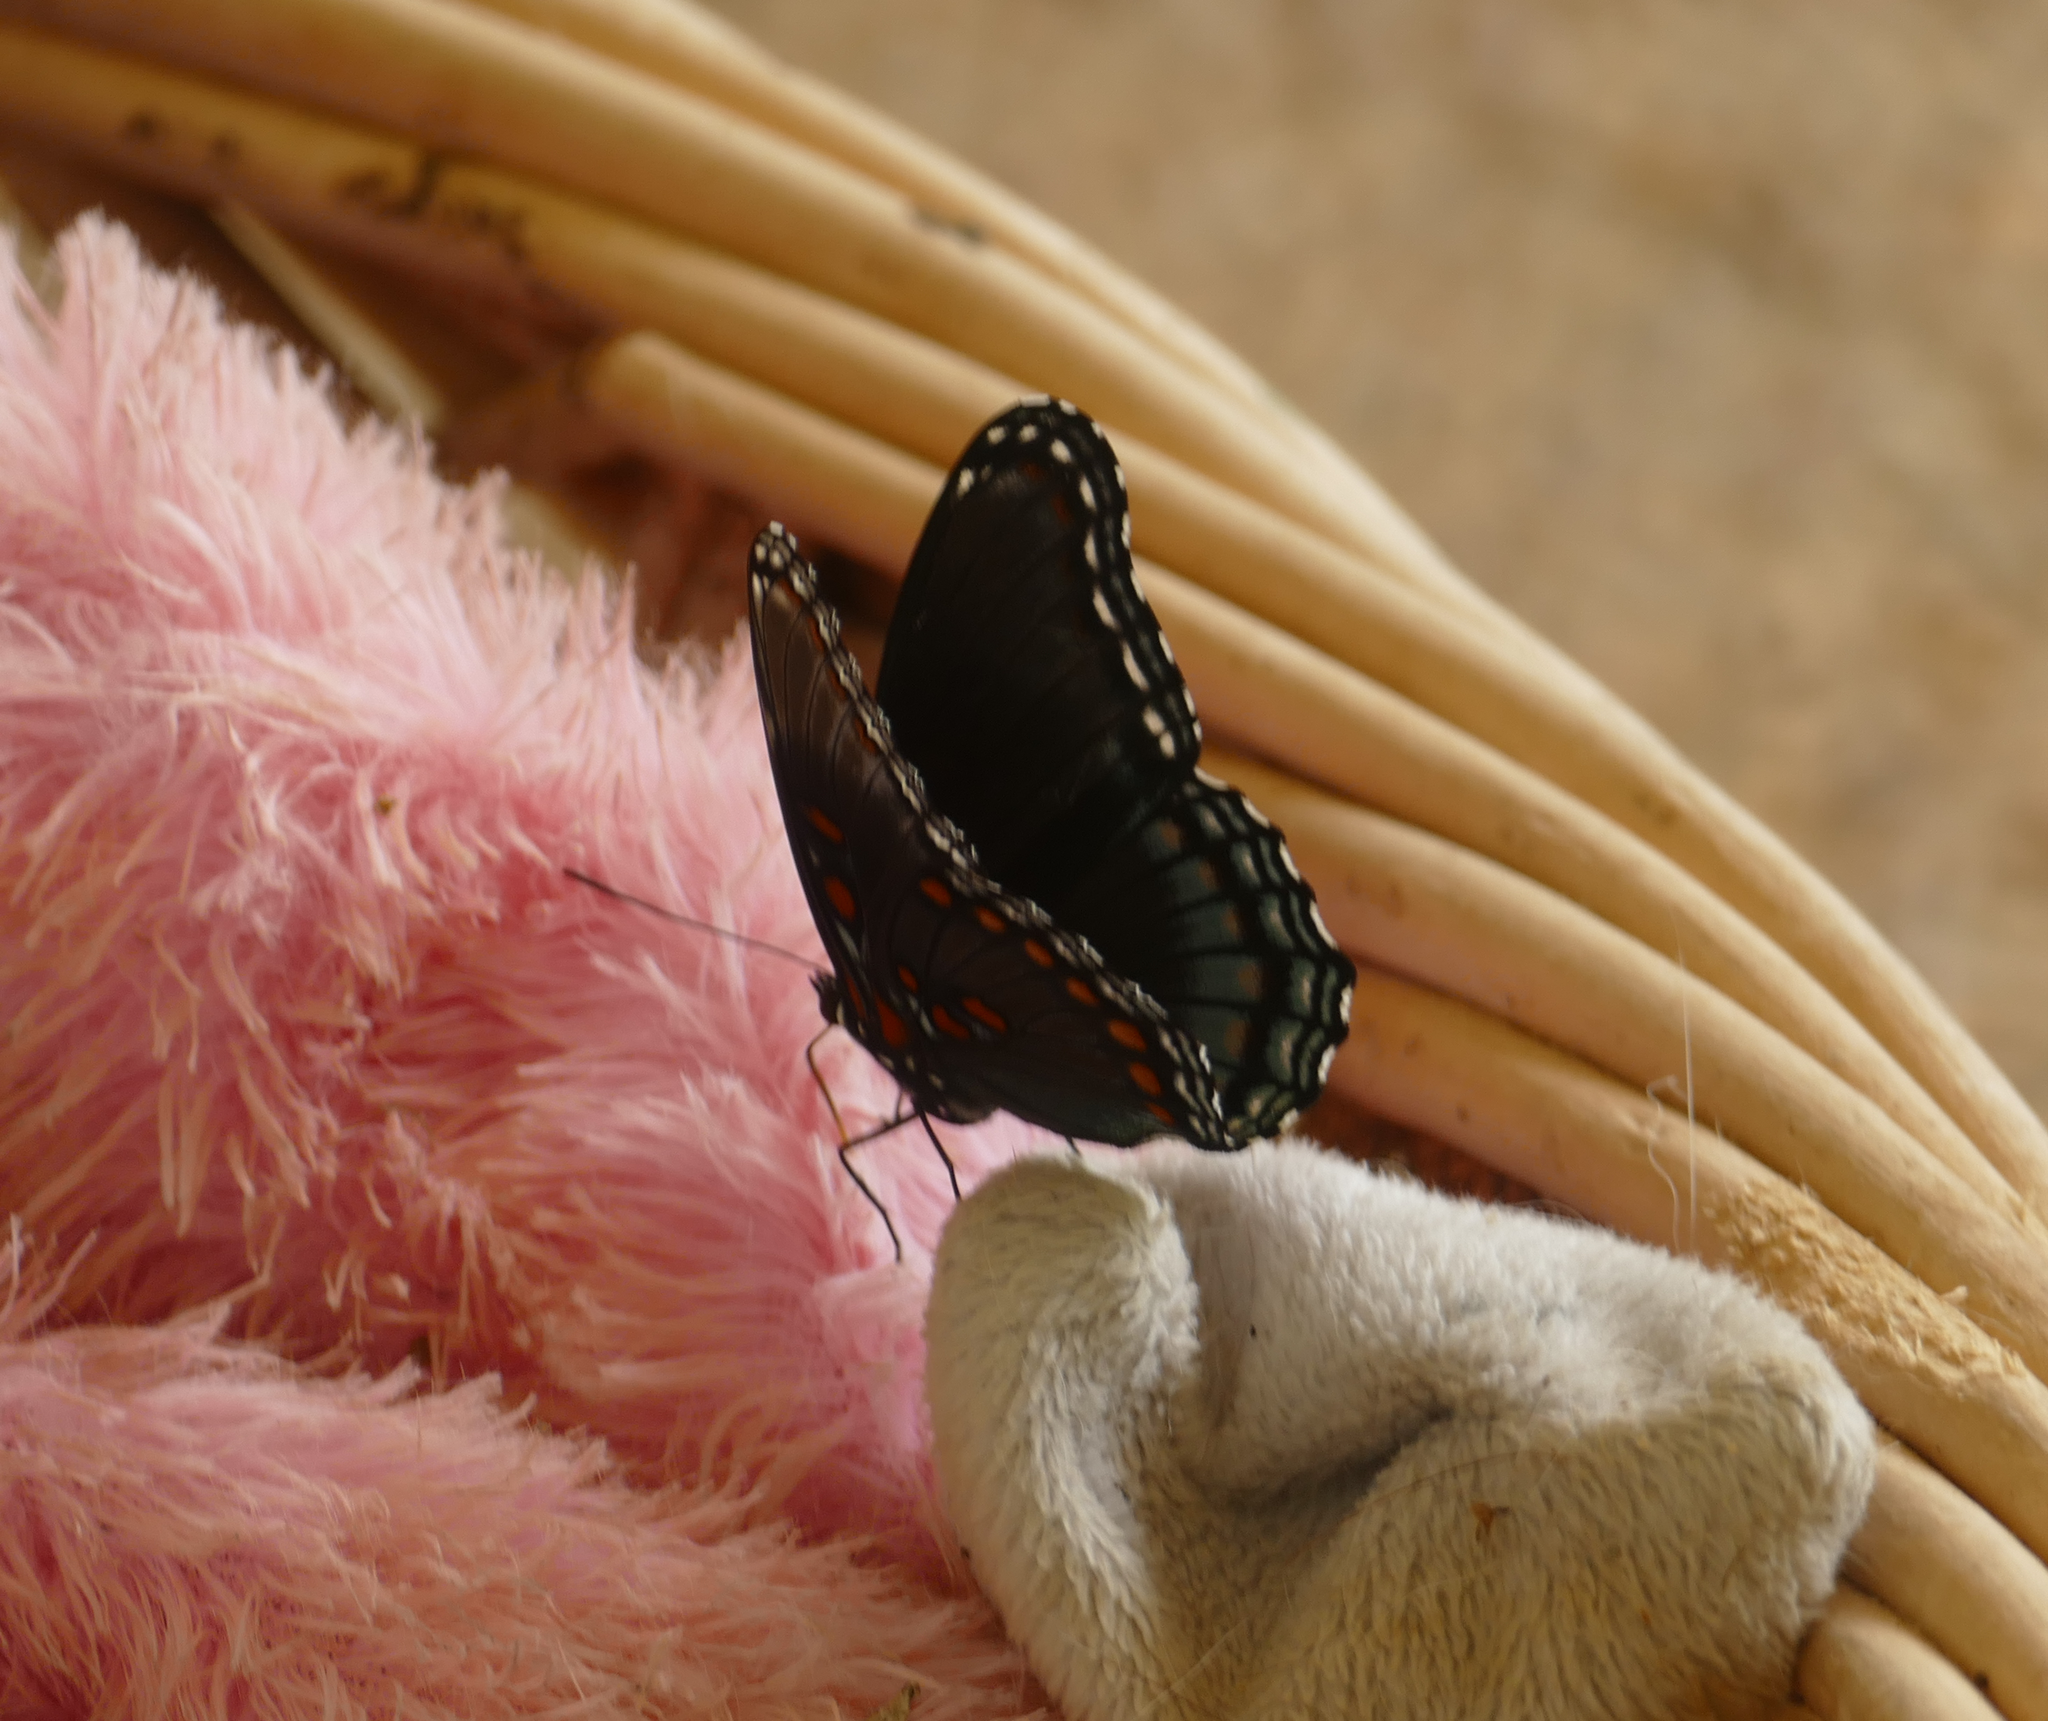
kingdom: Animalia
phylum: Arthropoda
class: Insecta
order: Lepidoptera
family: Nymphalidae
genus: Limenitis
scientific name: Limenitis arthemis
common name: Red-spotted admiral
